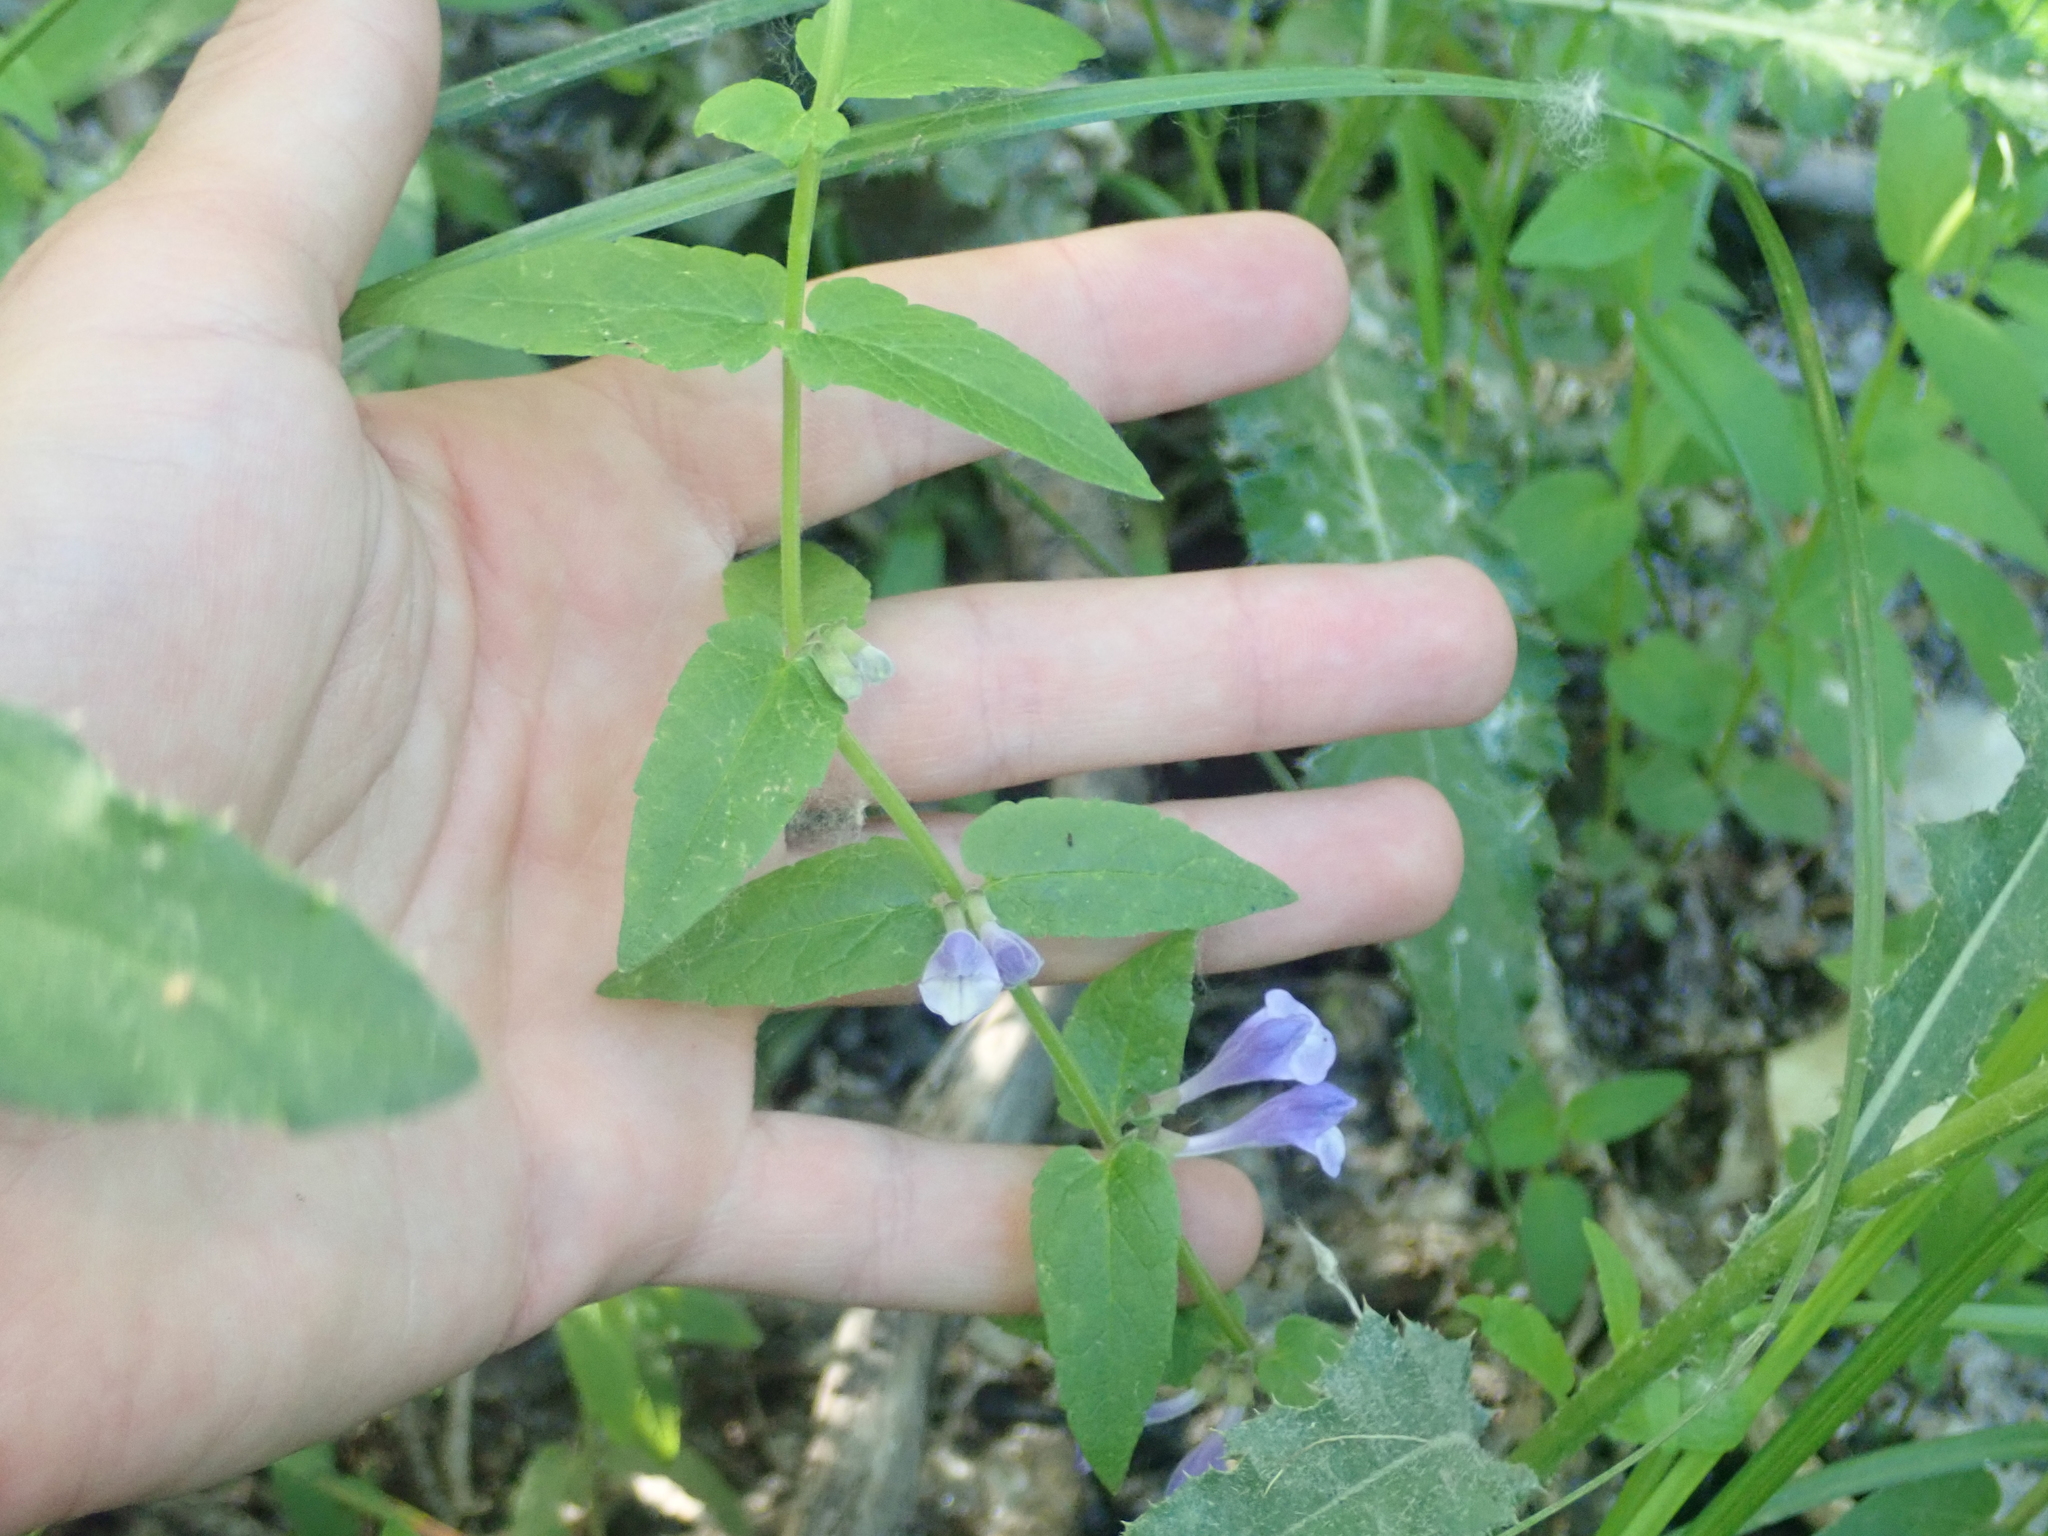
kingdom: Plantae
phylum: Tracheophyta
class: Magnoliopsida
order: Lamiales
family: Lamiaceae
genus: Scutellaria
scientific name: Scutellaria galericulata
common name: Skullcap
